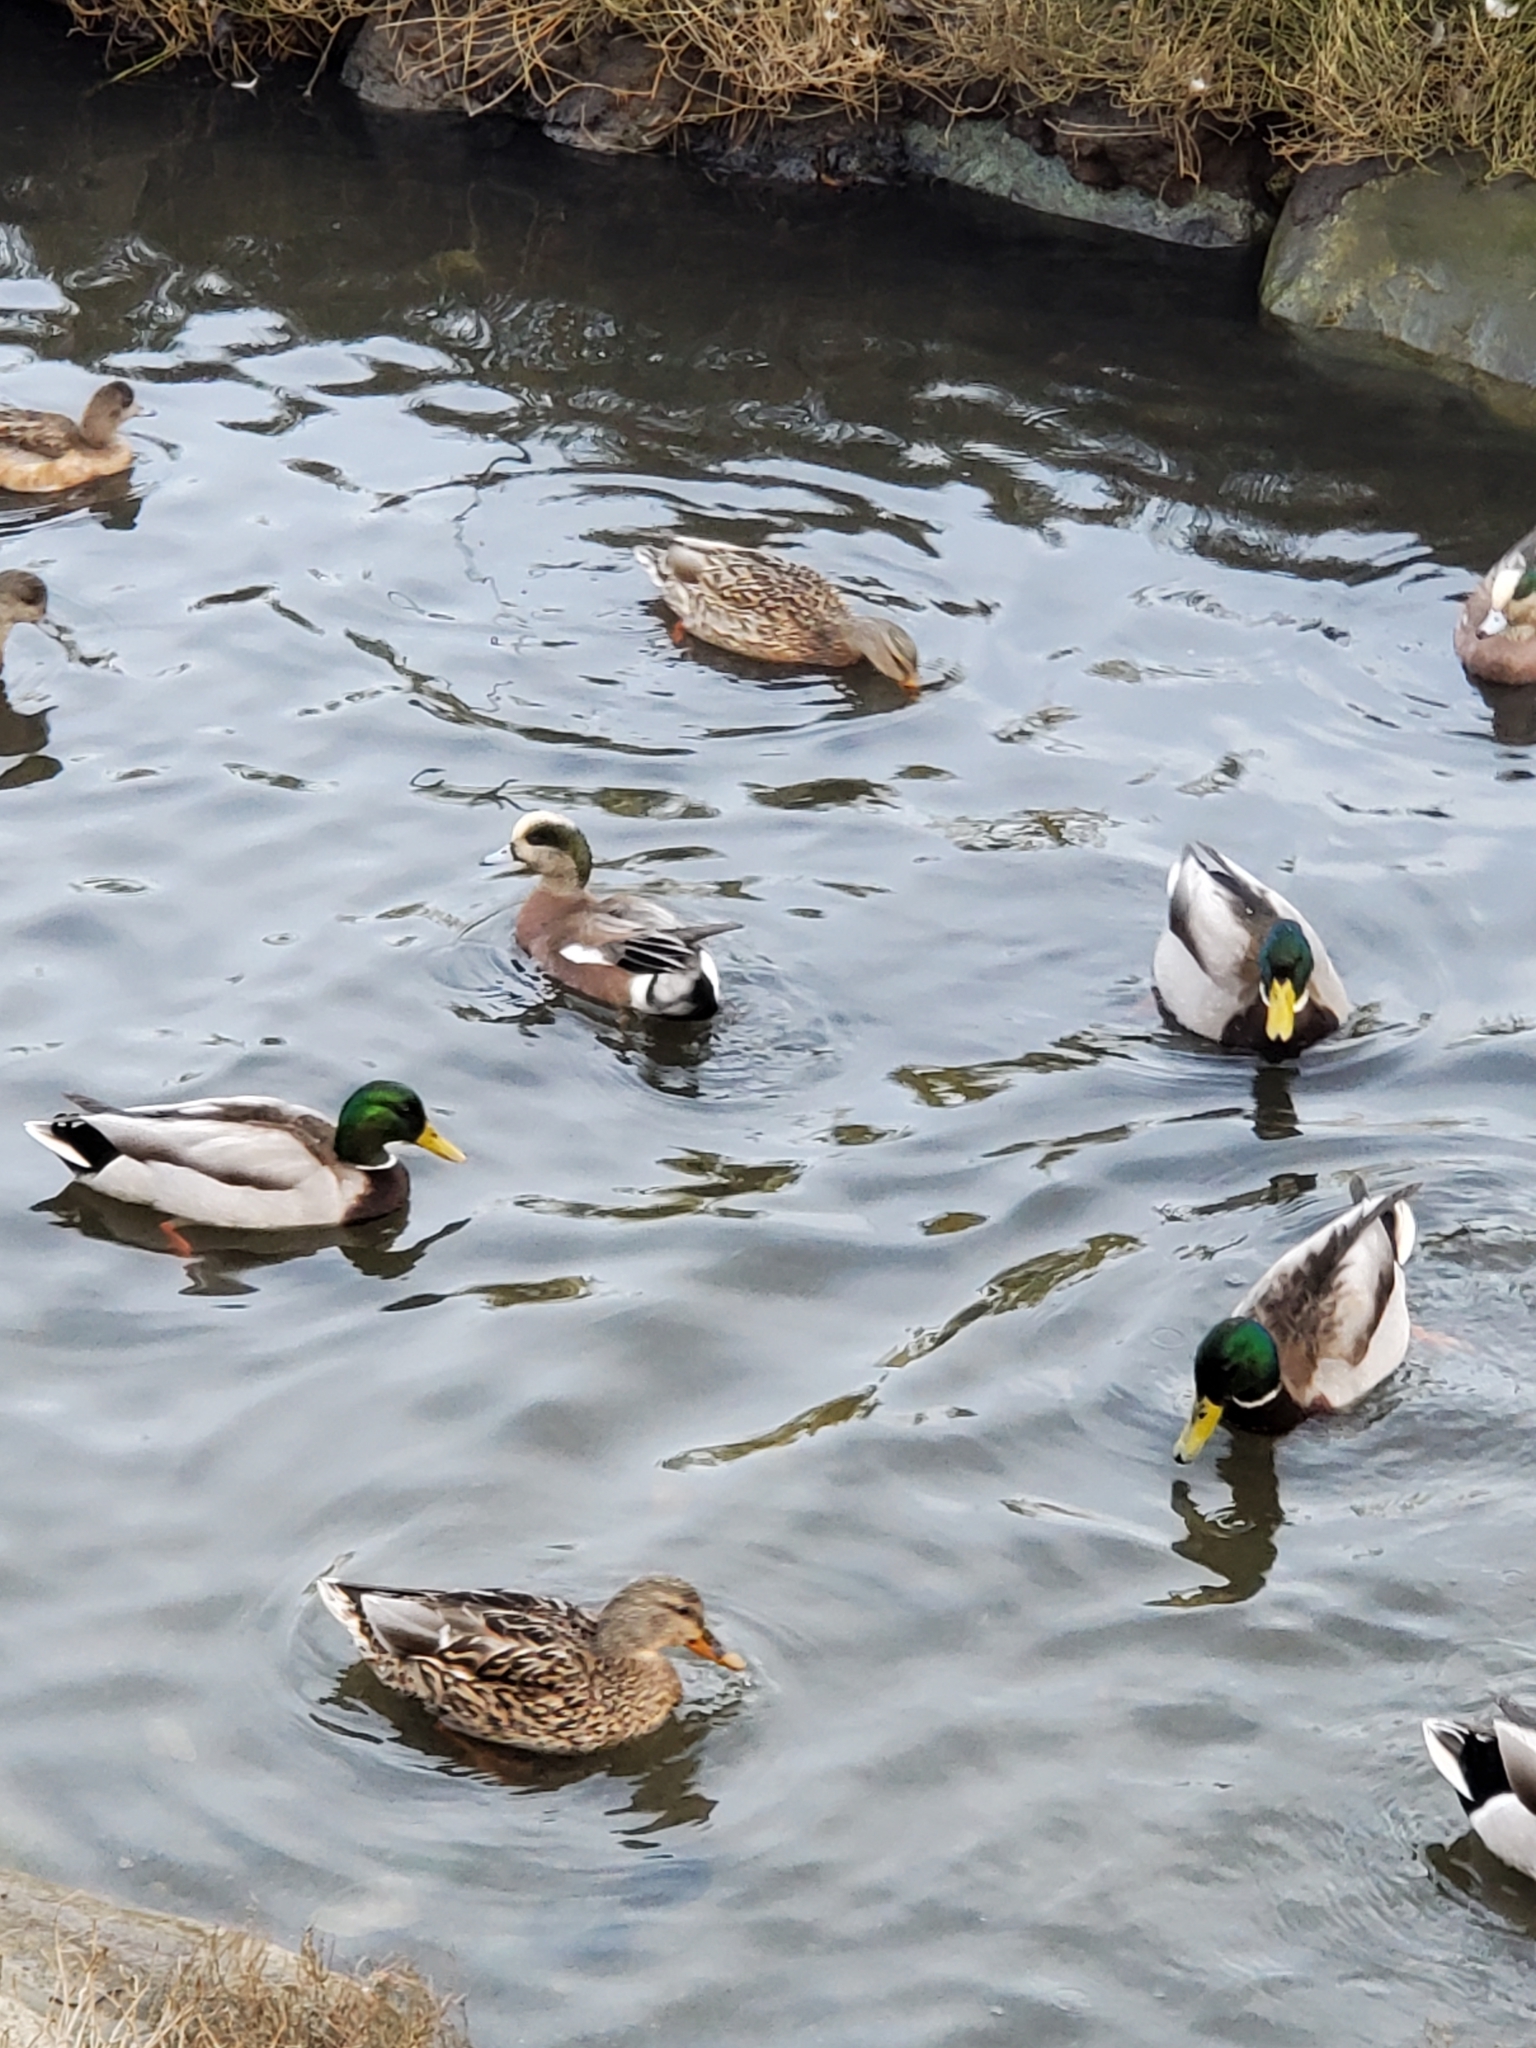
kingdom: Animalia
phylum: Chordata
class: Aves
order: Anseriformes
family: Anatidae
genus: Mareca
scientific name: Mareca americana
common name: American wigeon
